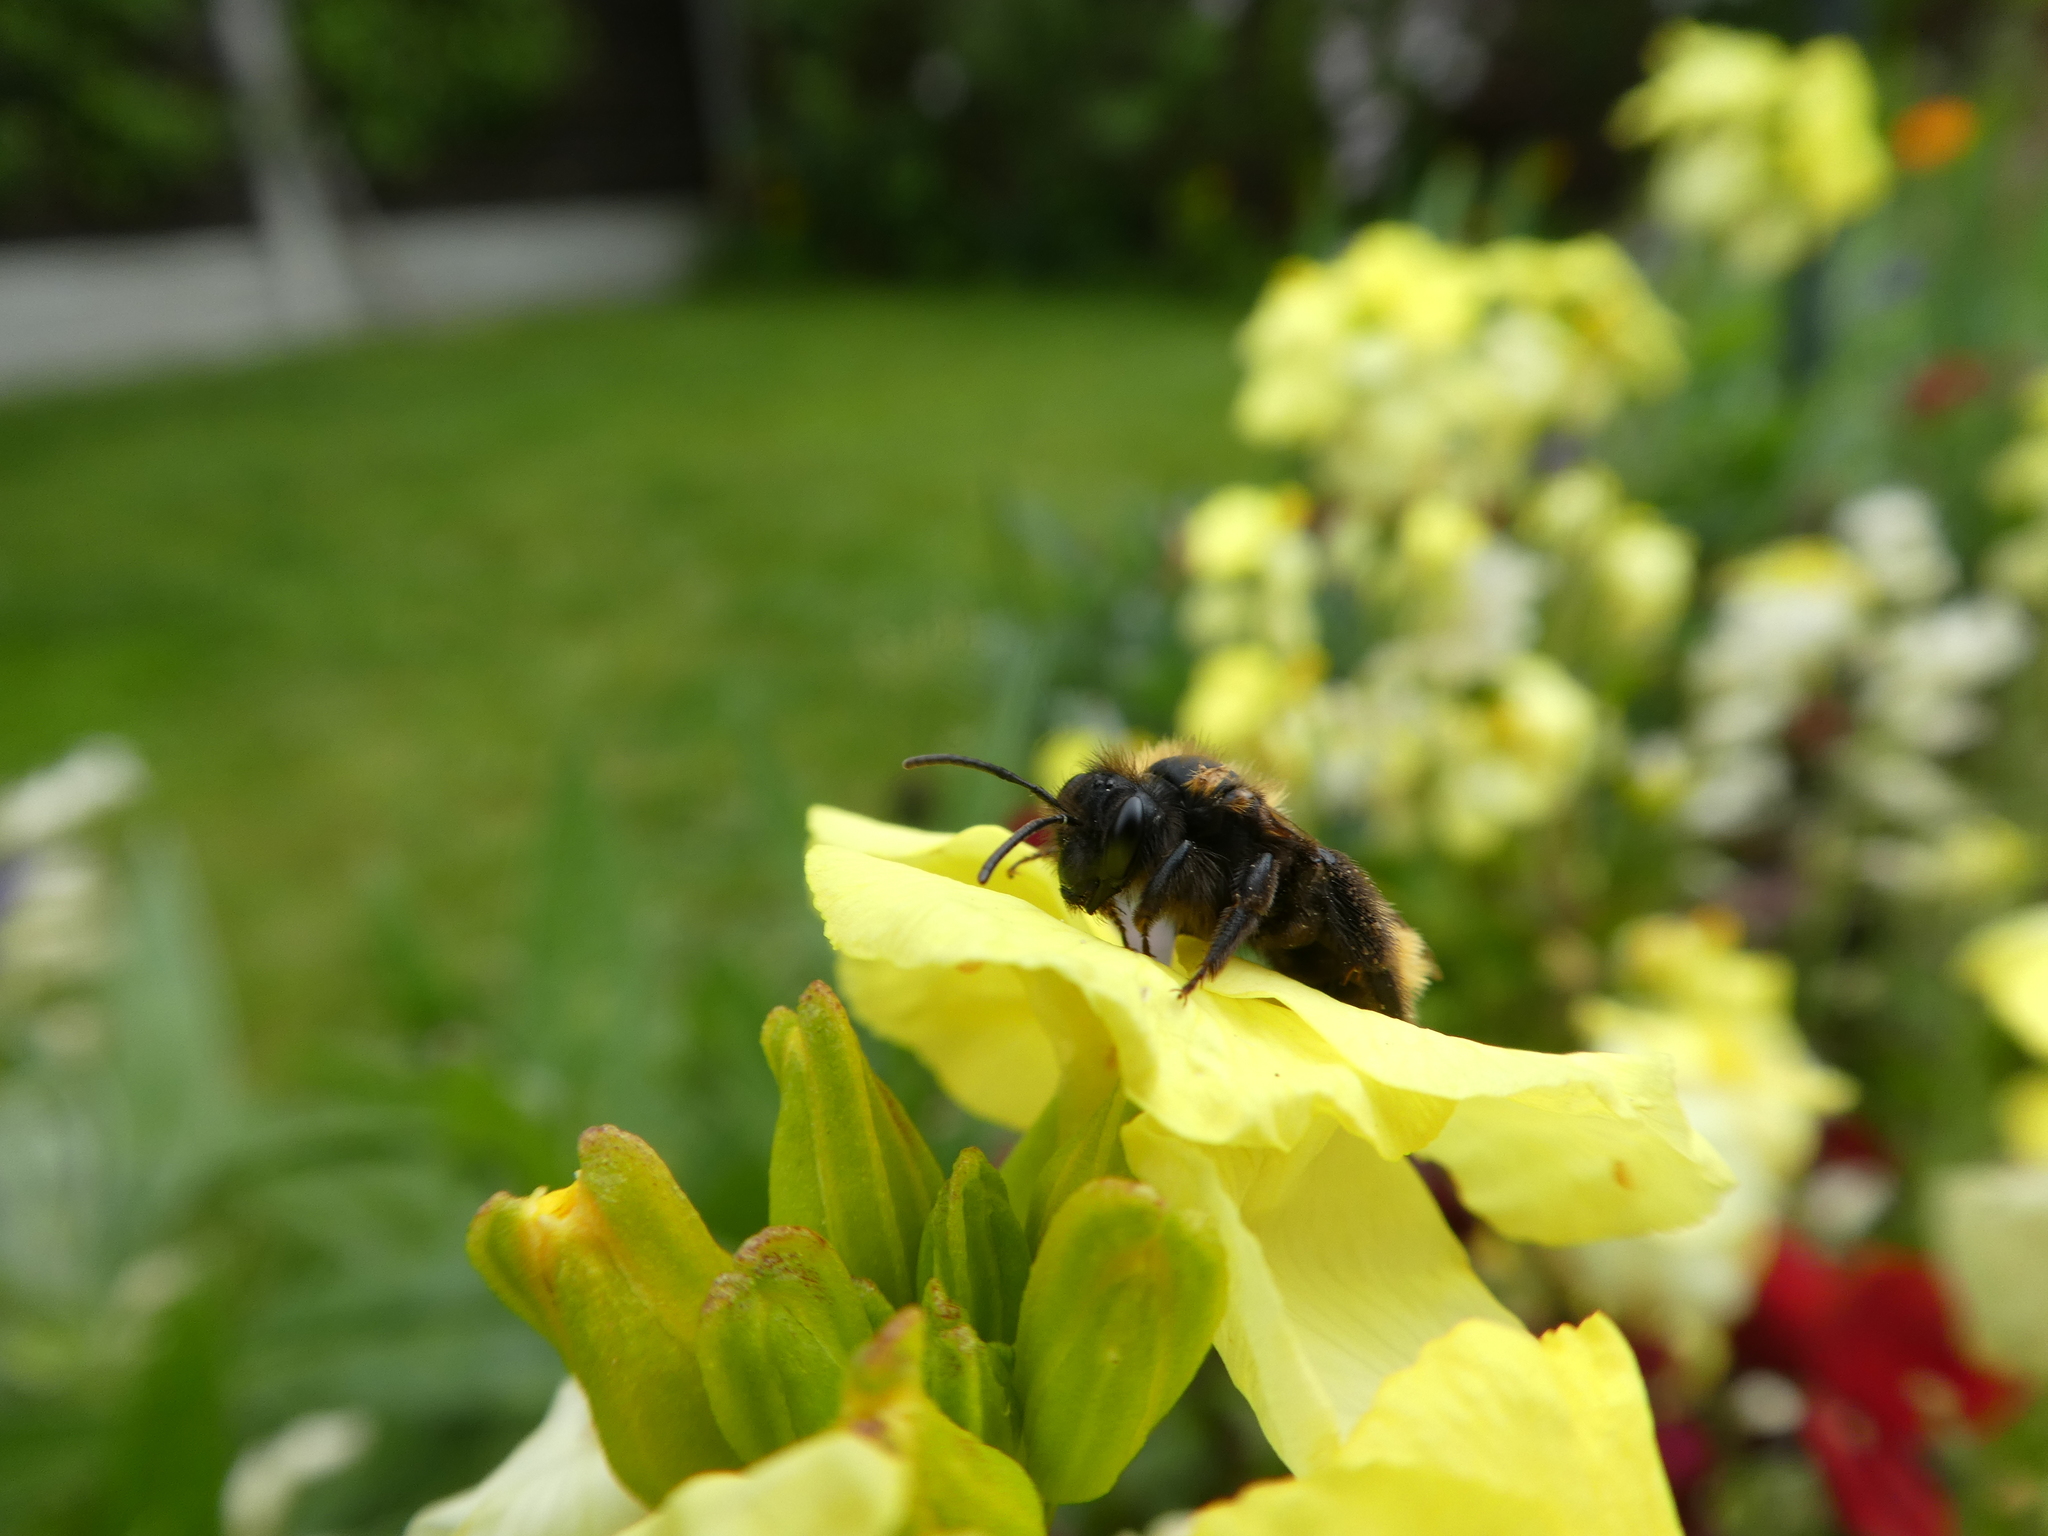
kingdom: Animalia
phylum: Arthropoda
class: Insecta
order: Hymenoptera
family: Andrenidae
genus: Andrena
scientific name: Andrena fulva
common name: Tawny mining bee
